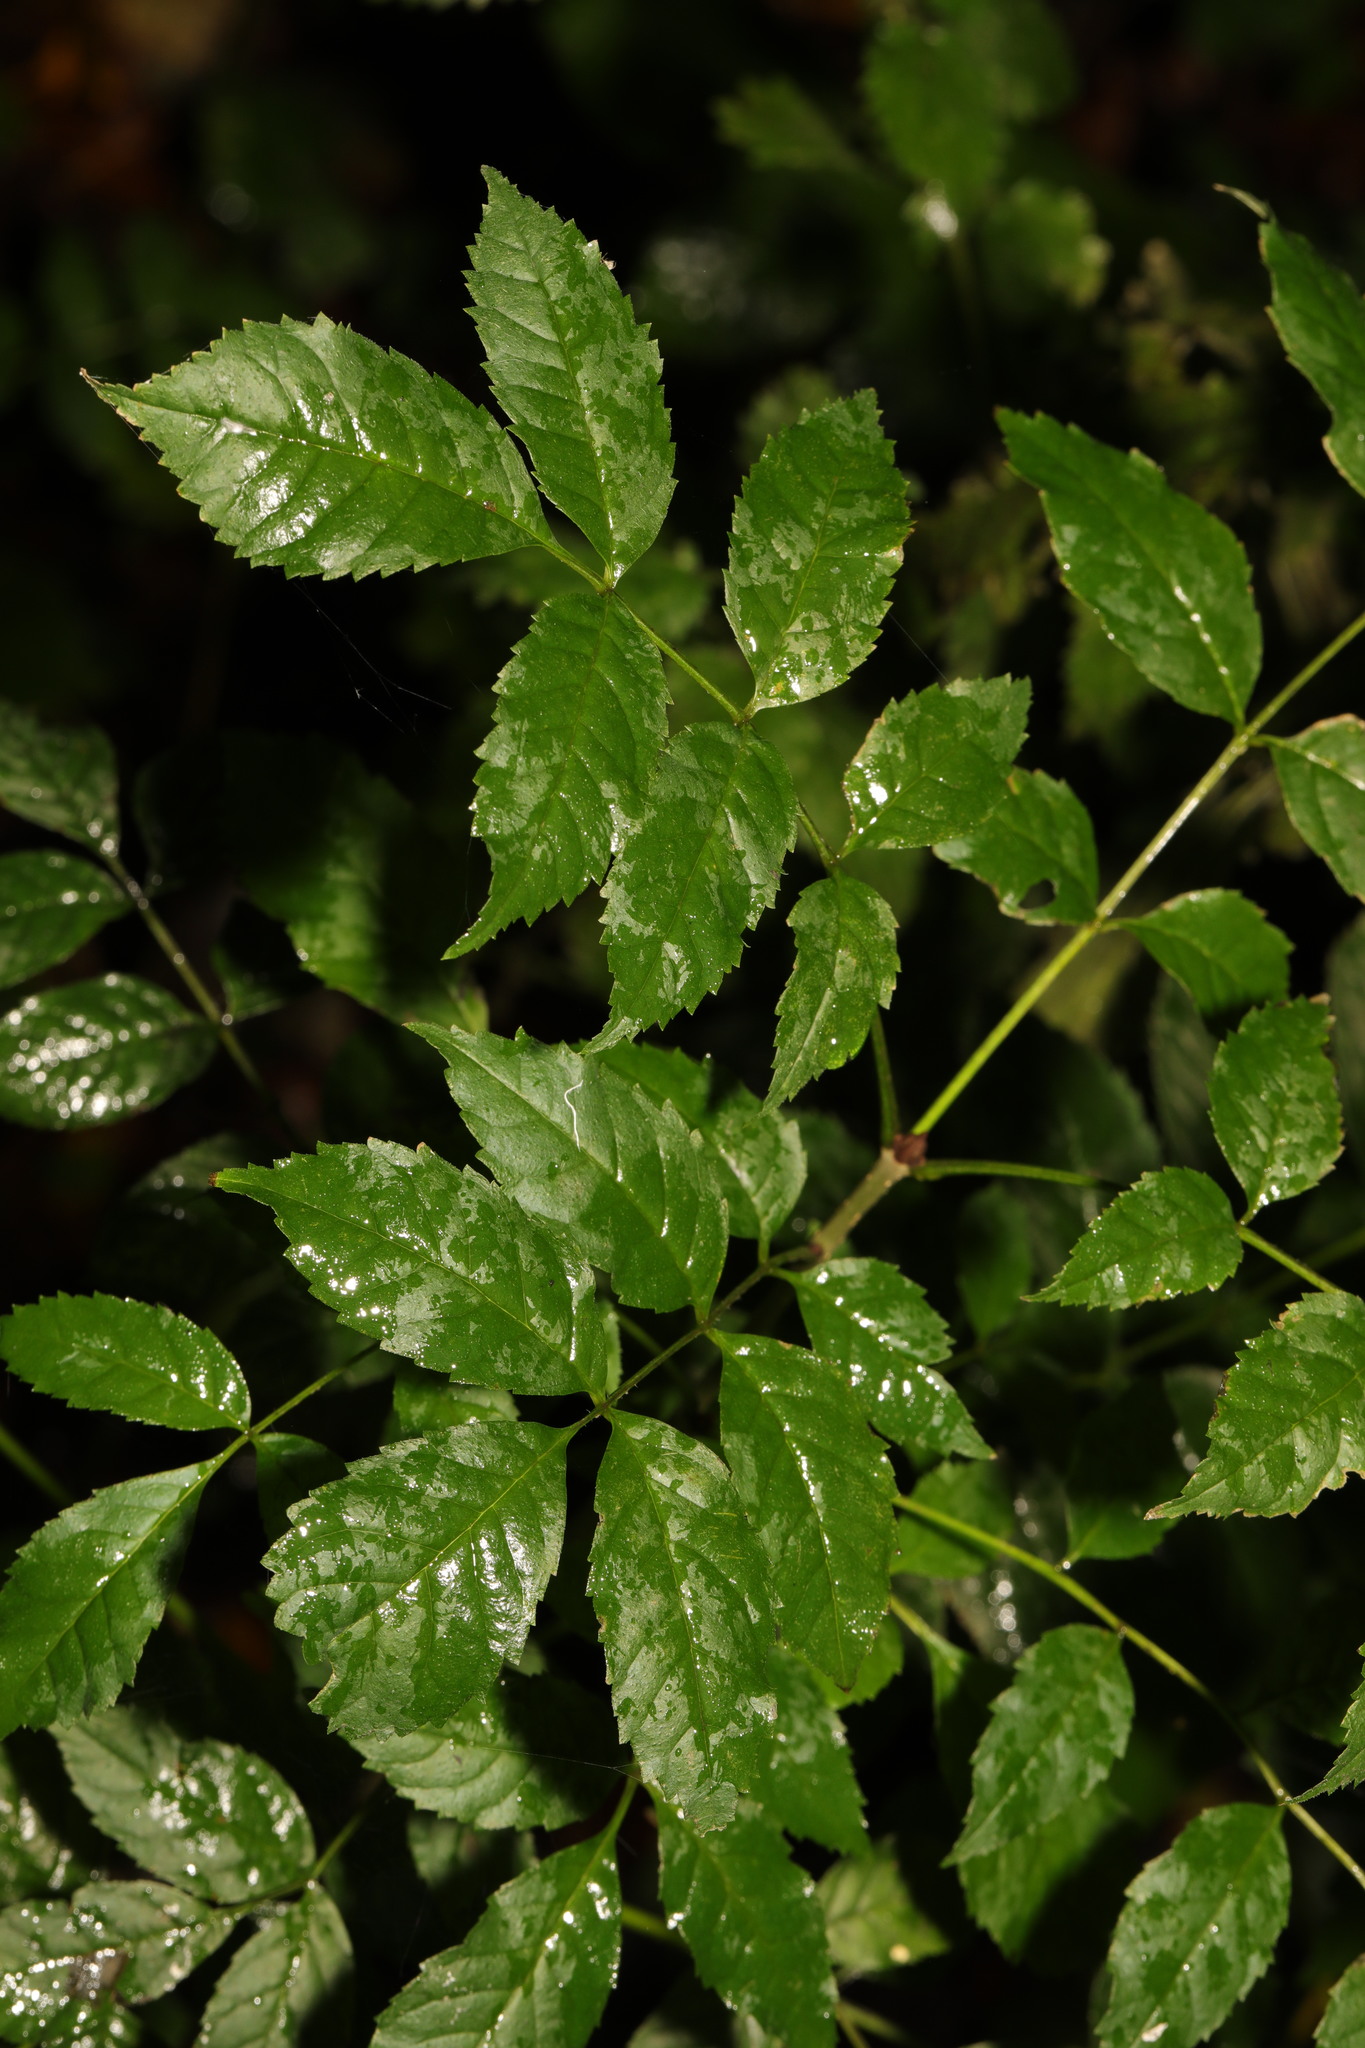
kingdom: Plantae
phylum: Tracheophyta
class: Magnoliopsida
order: Lamiales
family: Oleaceae
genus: Fraxinus
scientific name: Fraxinus excelsior
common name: European ash
